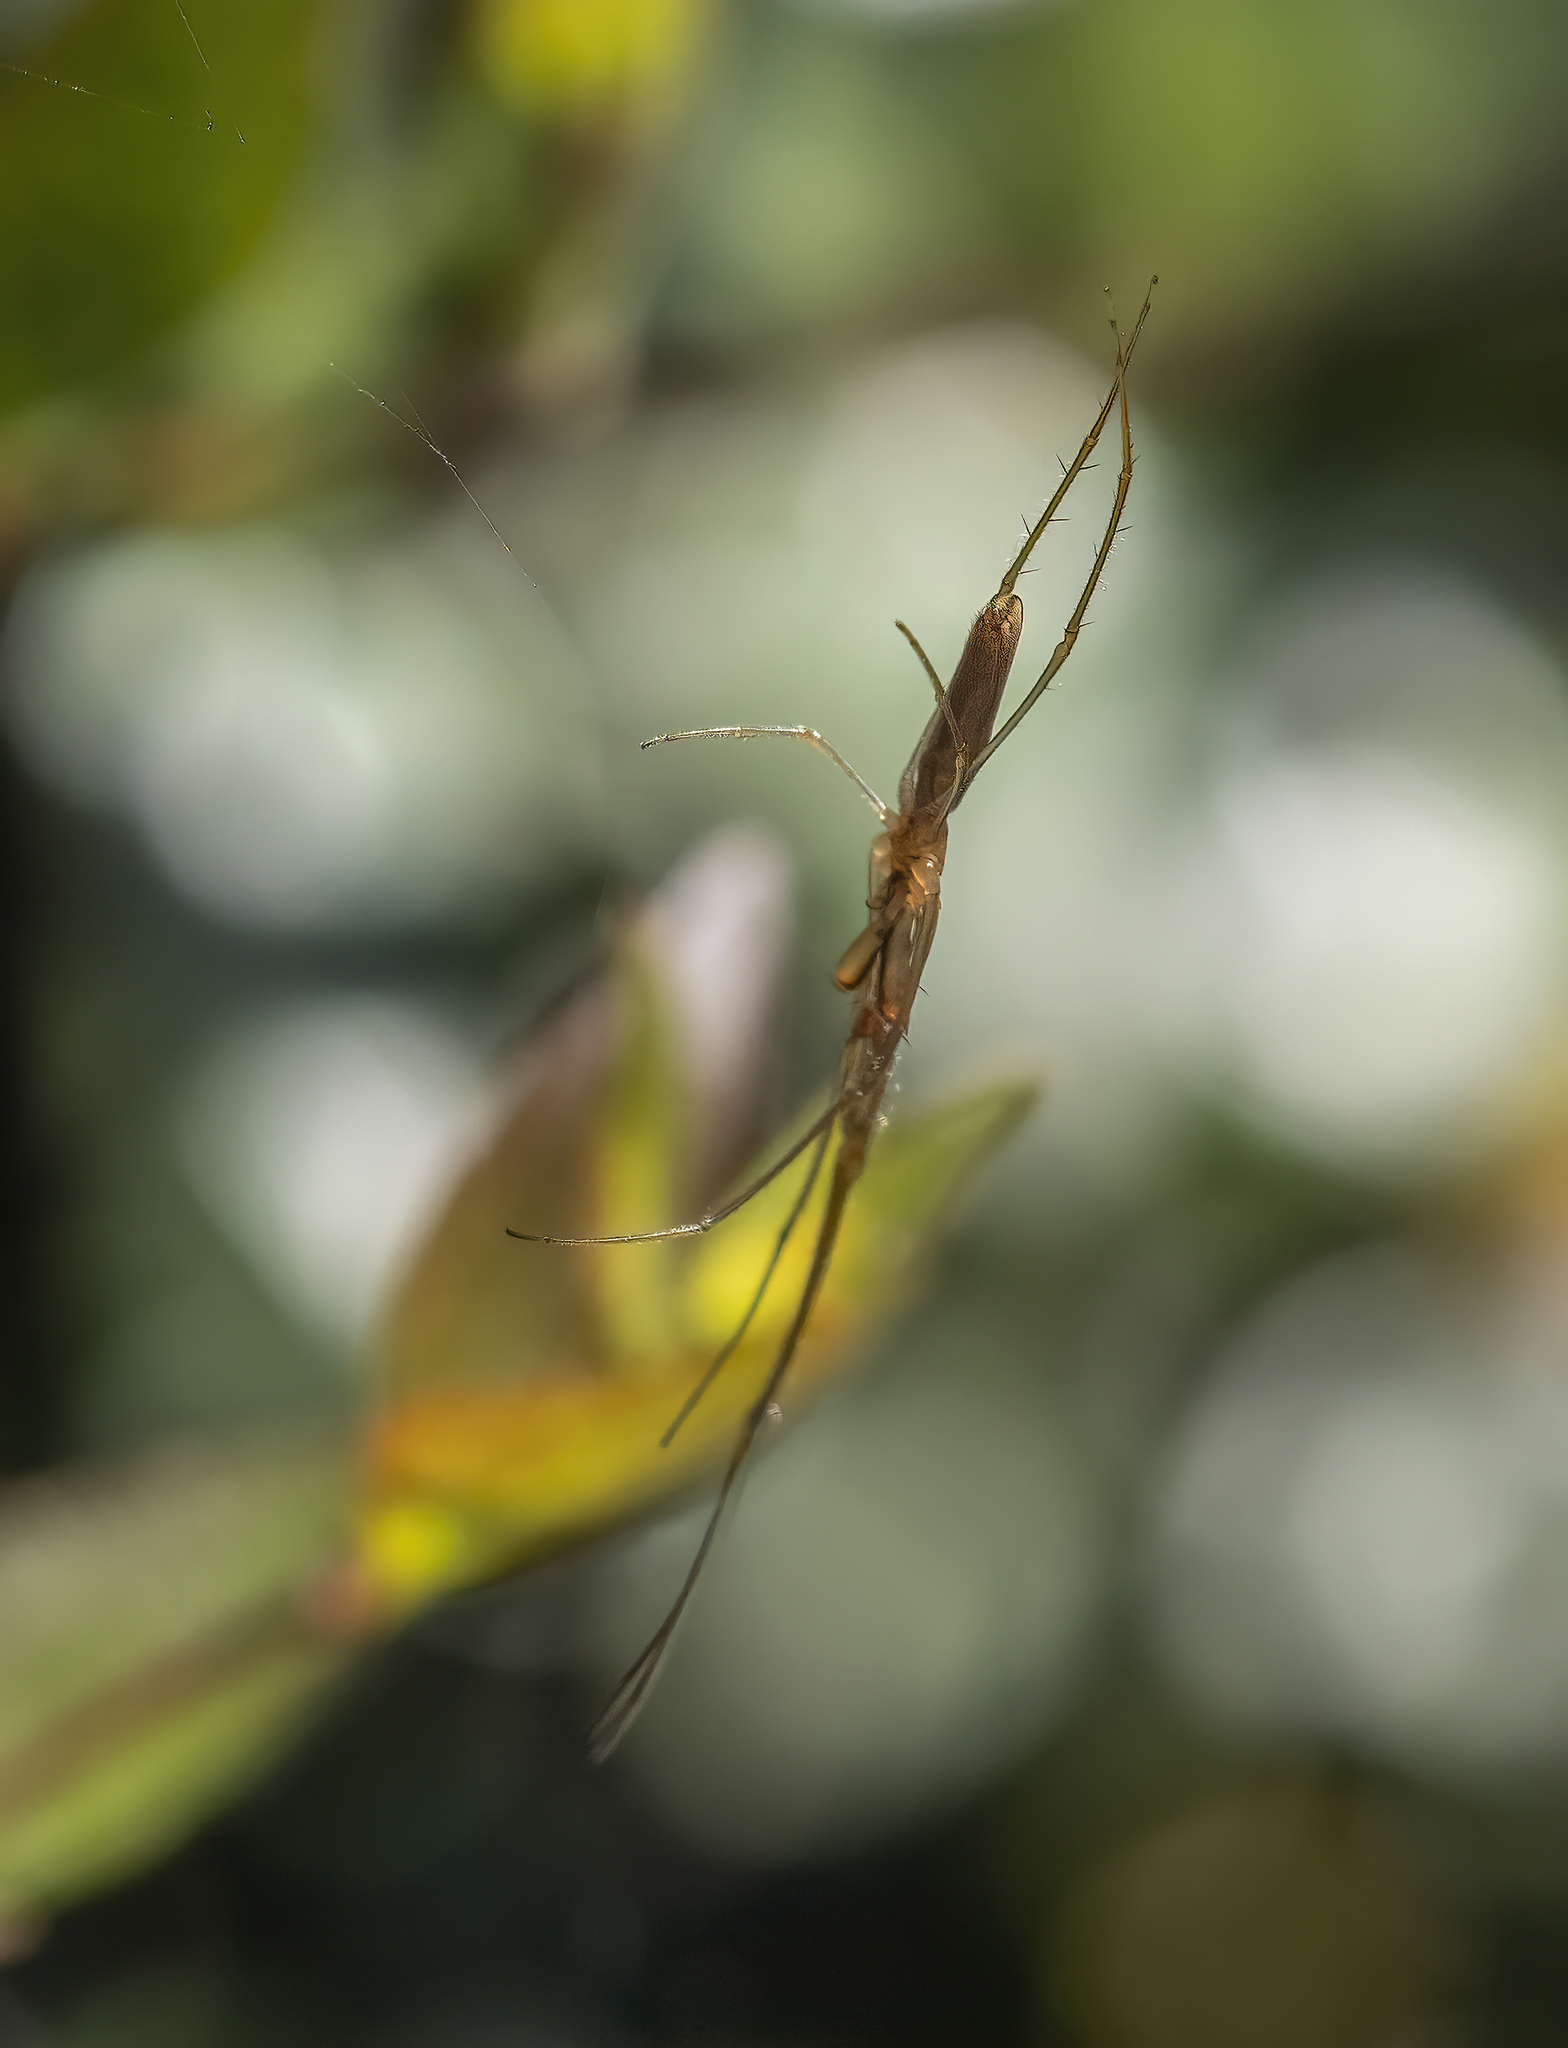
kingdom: Animalia
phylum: Arthropoda
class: Arachnida
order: Araneae
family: Tetragnathidae
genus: Tetragnatha
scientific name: Tetragnatha
